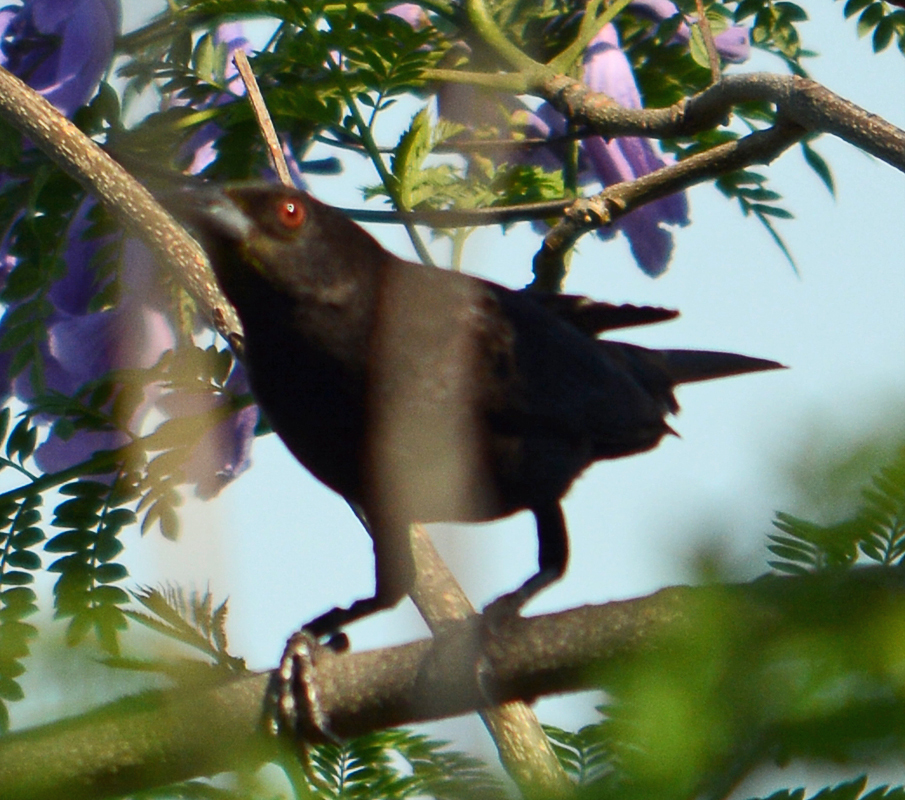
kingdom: Animalia
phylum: Chordata
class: Aves
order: Passeriformes
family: Icteridae
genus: Molothrus
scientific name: Molothrus aeneus
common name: Bronzed cowbird
